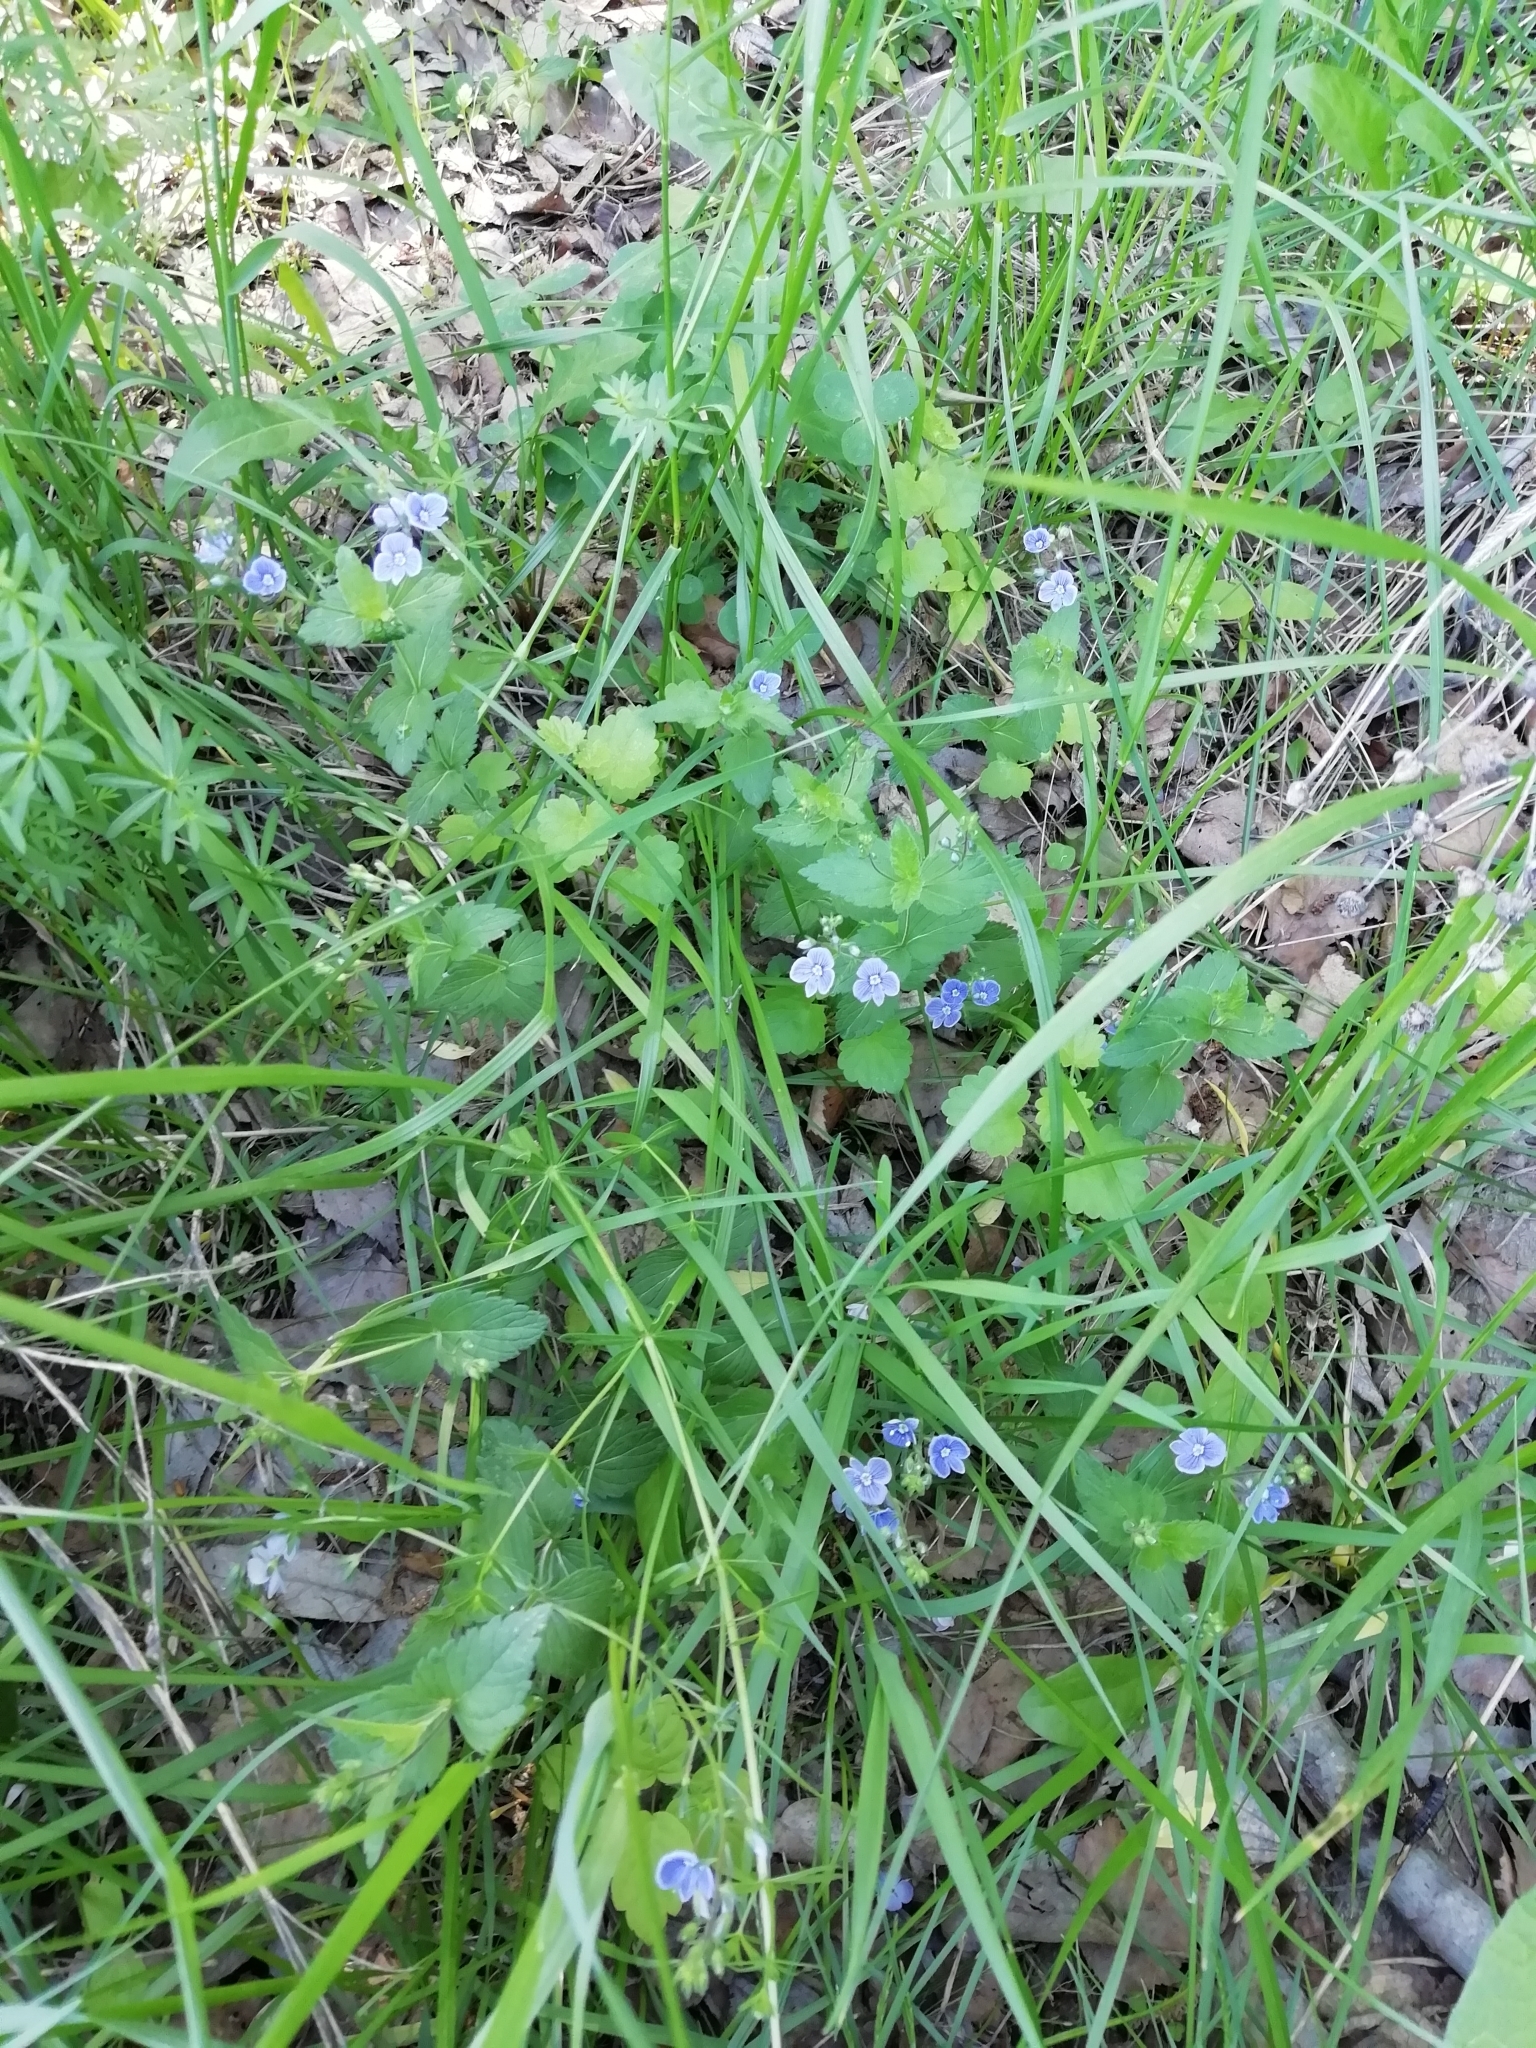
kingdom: Plantae
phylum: Tracheophyta
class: Magnoliopsida
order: Lamiales
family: Plantaginaceae
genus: Veronica
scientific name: Veronica chamaedrys
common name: Germander speedwell
